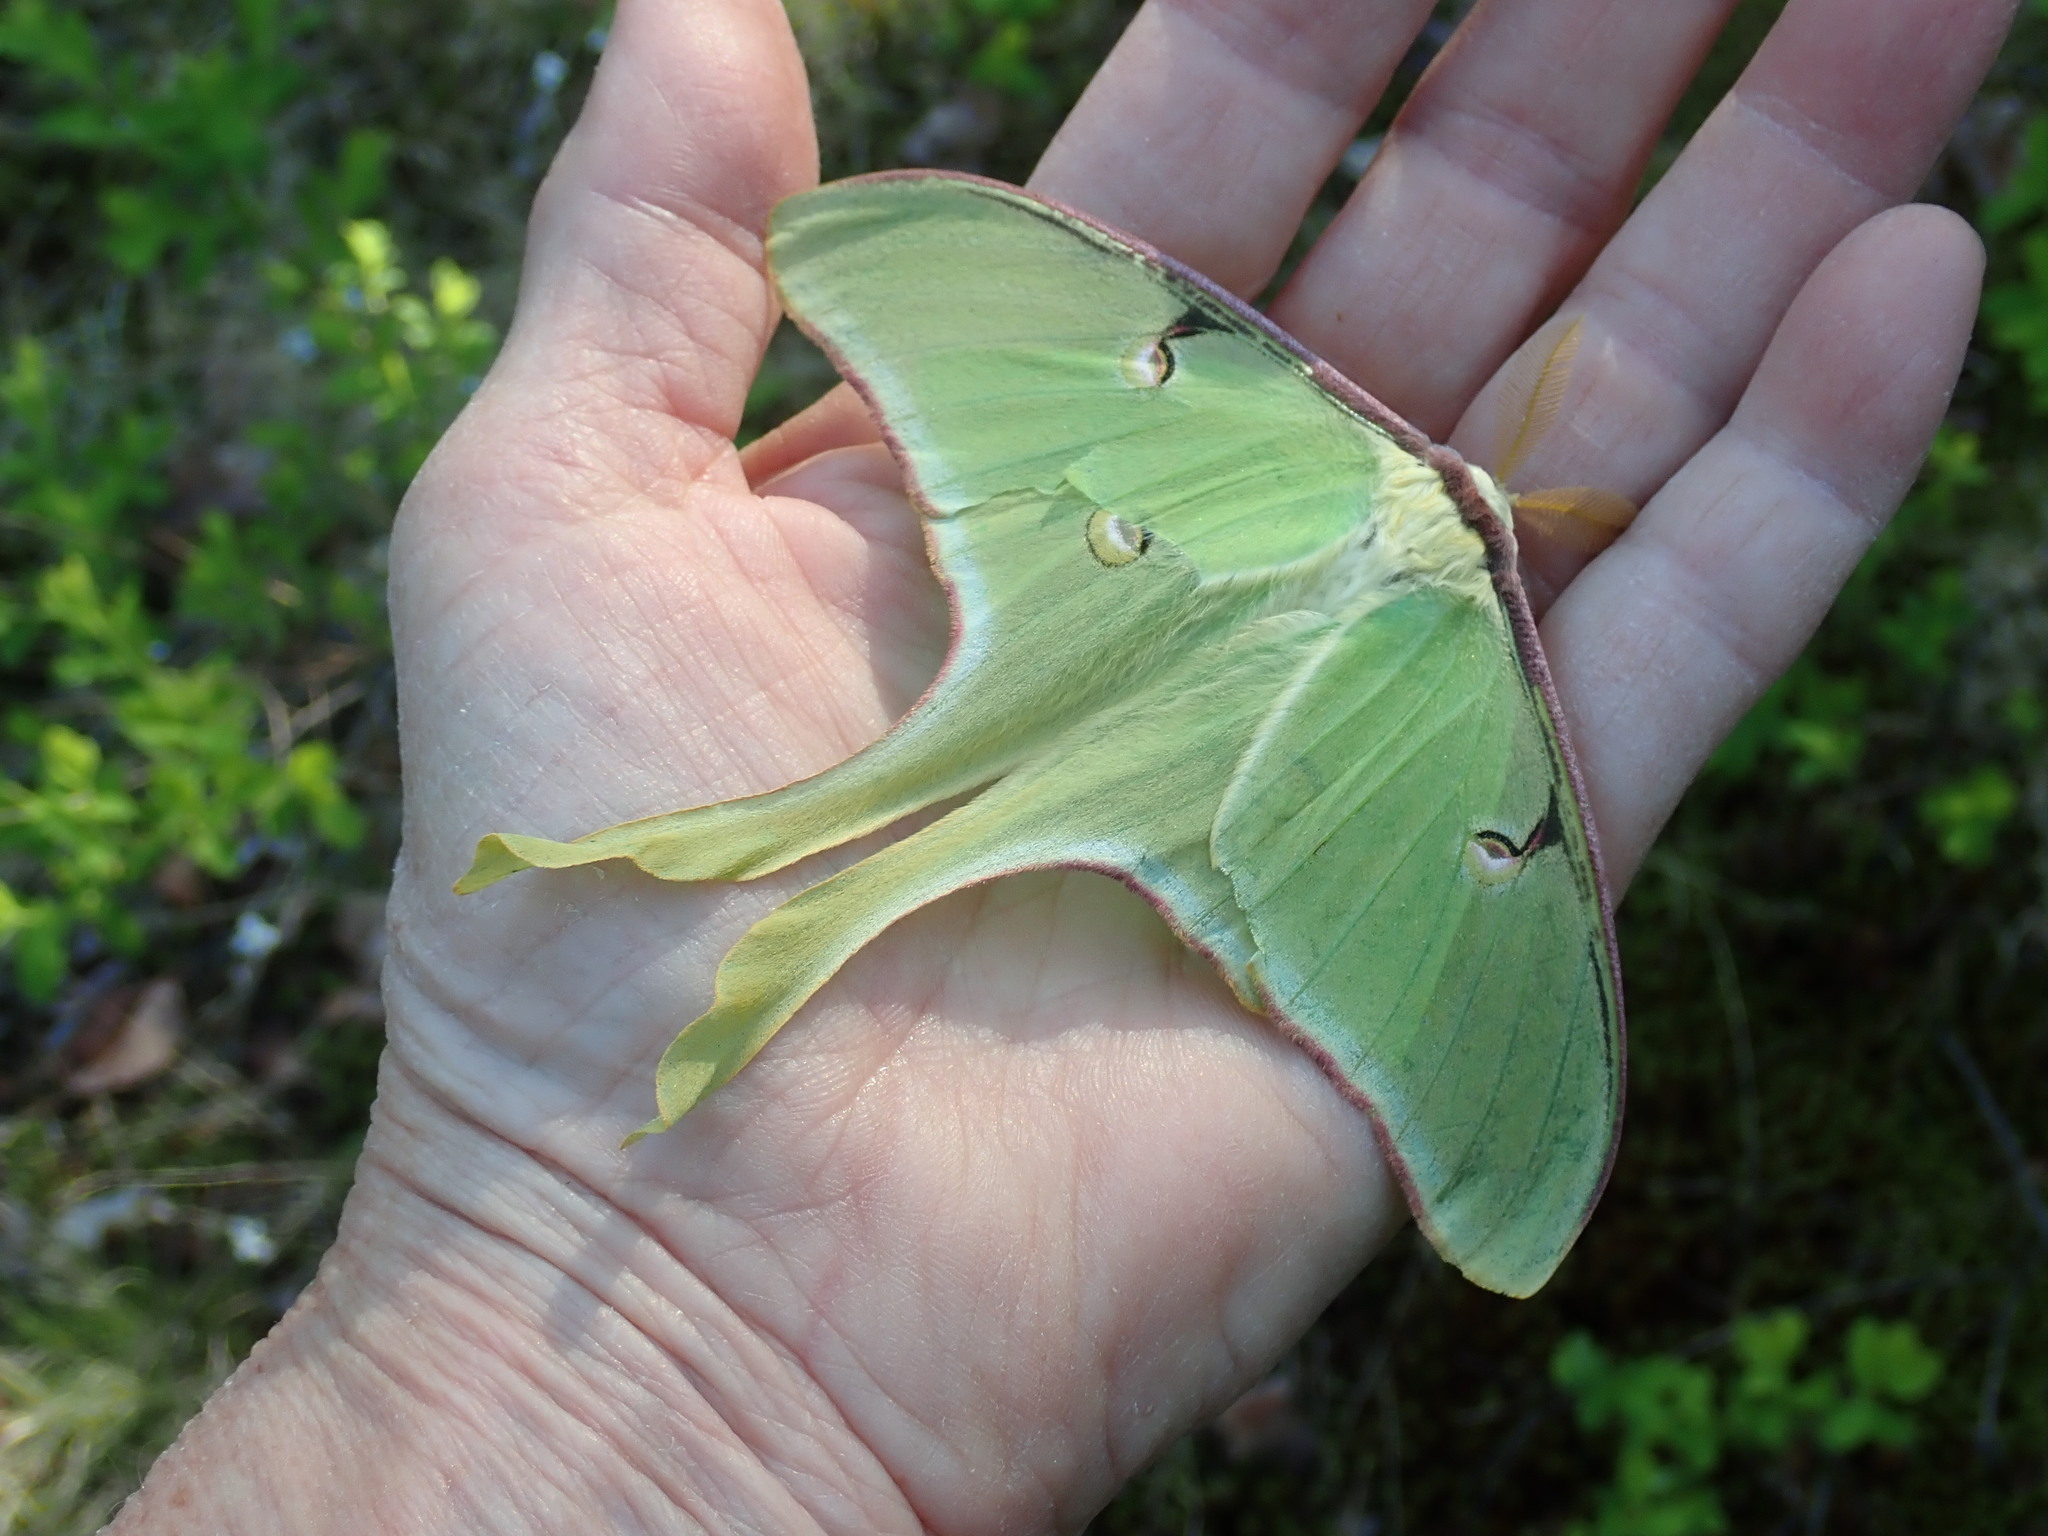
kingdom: Animalia
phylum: Arthropoda
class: Insecta
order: Lepidoptera
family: Saturniidae
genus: Actias
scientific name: Actias luna
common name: Luna moth
